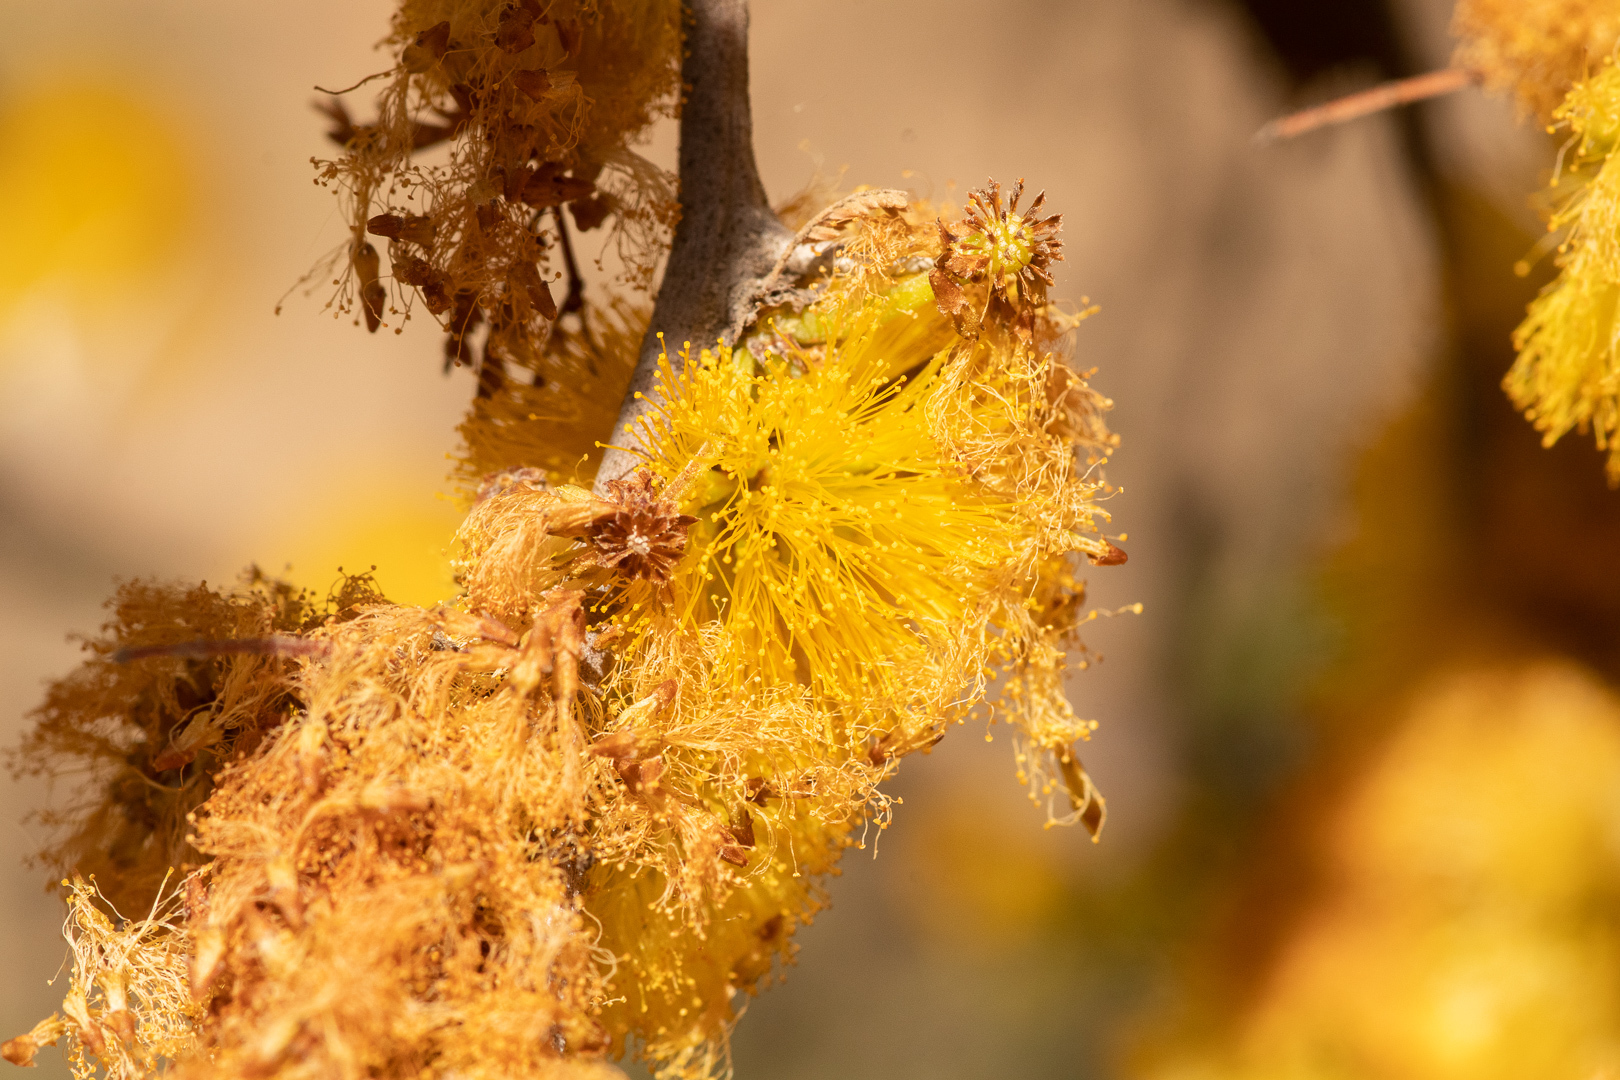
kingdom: Plantae
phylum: Tracheophyta
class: Magnoliopsida
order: Fabales
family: Fabaceae
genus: Vachellia
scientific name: Vachellia caven
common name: Roman cassie
